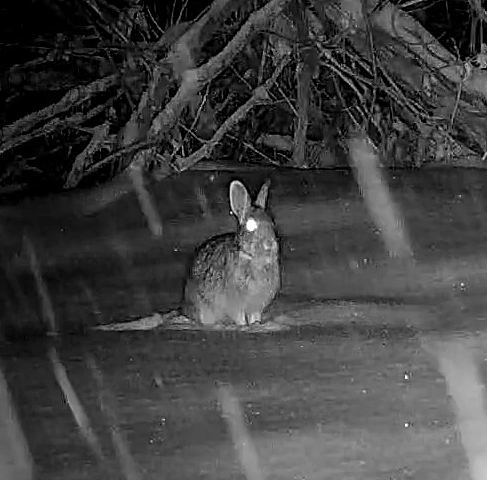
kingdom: Animalia
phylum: Chordata
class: Mammalia
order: Lagomorpha
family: Leporidae
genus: Sylvilagus
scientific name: Sylvilagus floridanus
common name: Eastern cottontail
